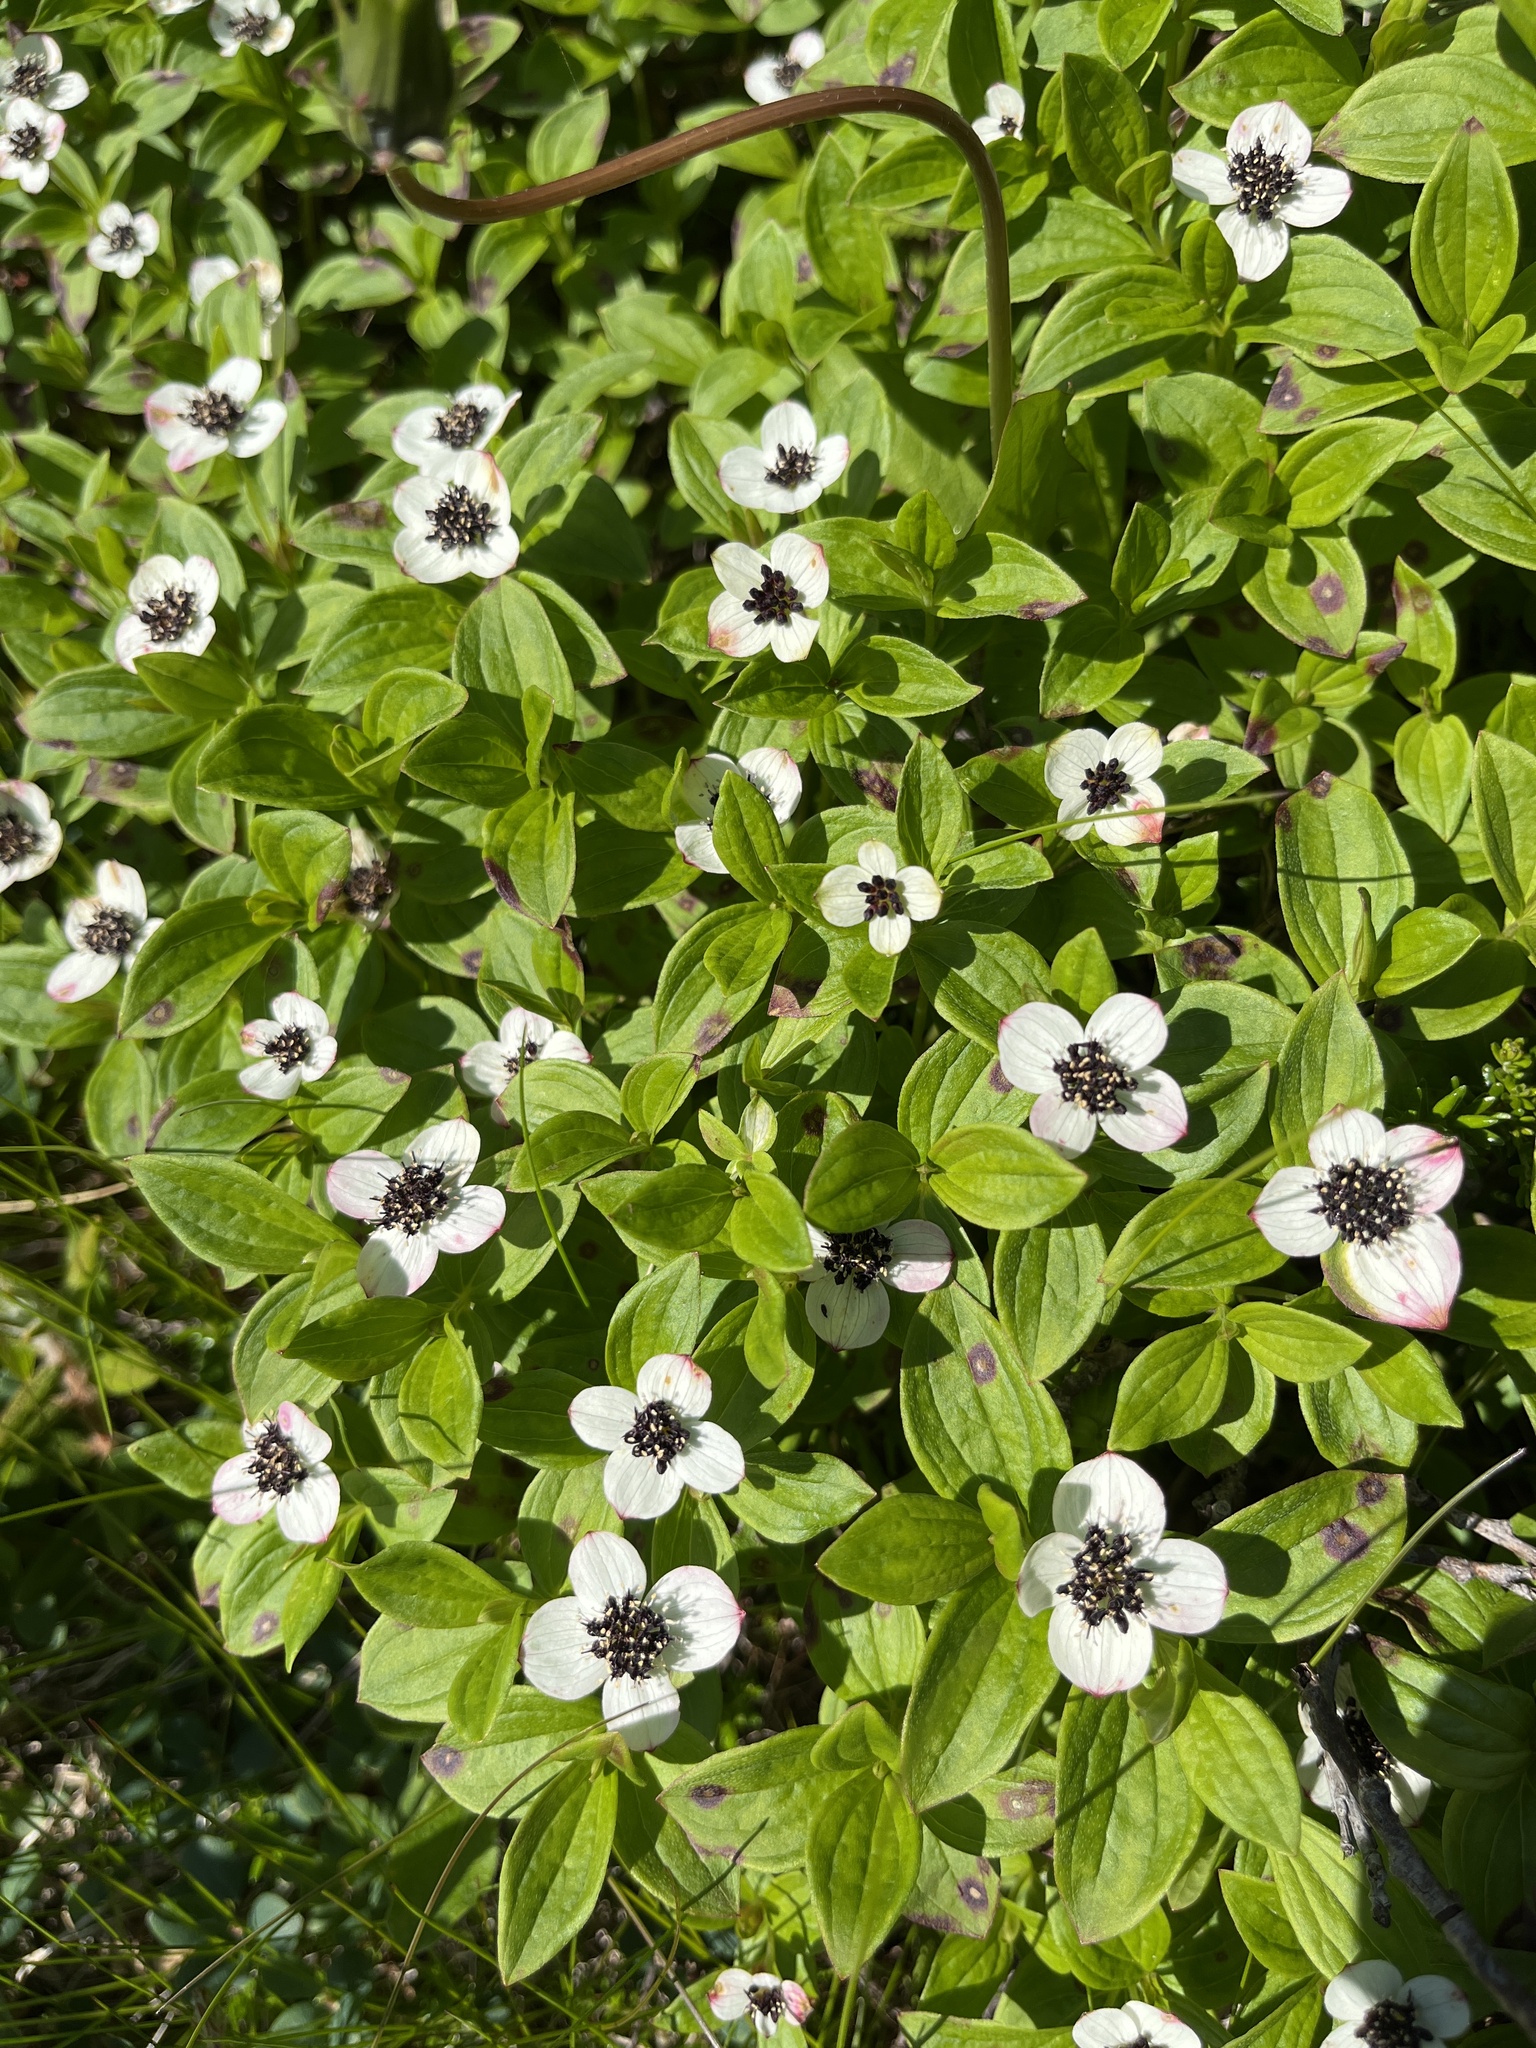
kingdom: Plantae
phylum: Tracheophyta
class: Magnoliopsida
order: Cornales
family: Cornaceae
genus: Cornus
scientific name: Cornus suecica
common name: Dwarf cornel
